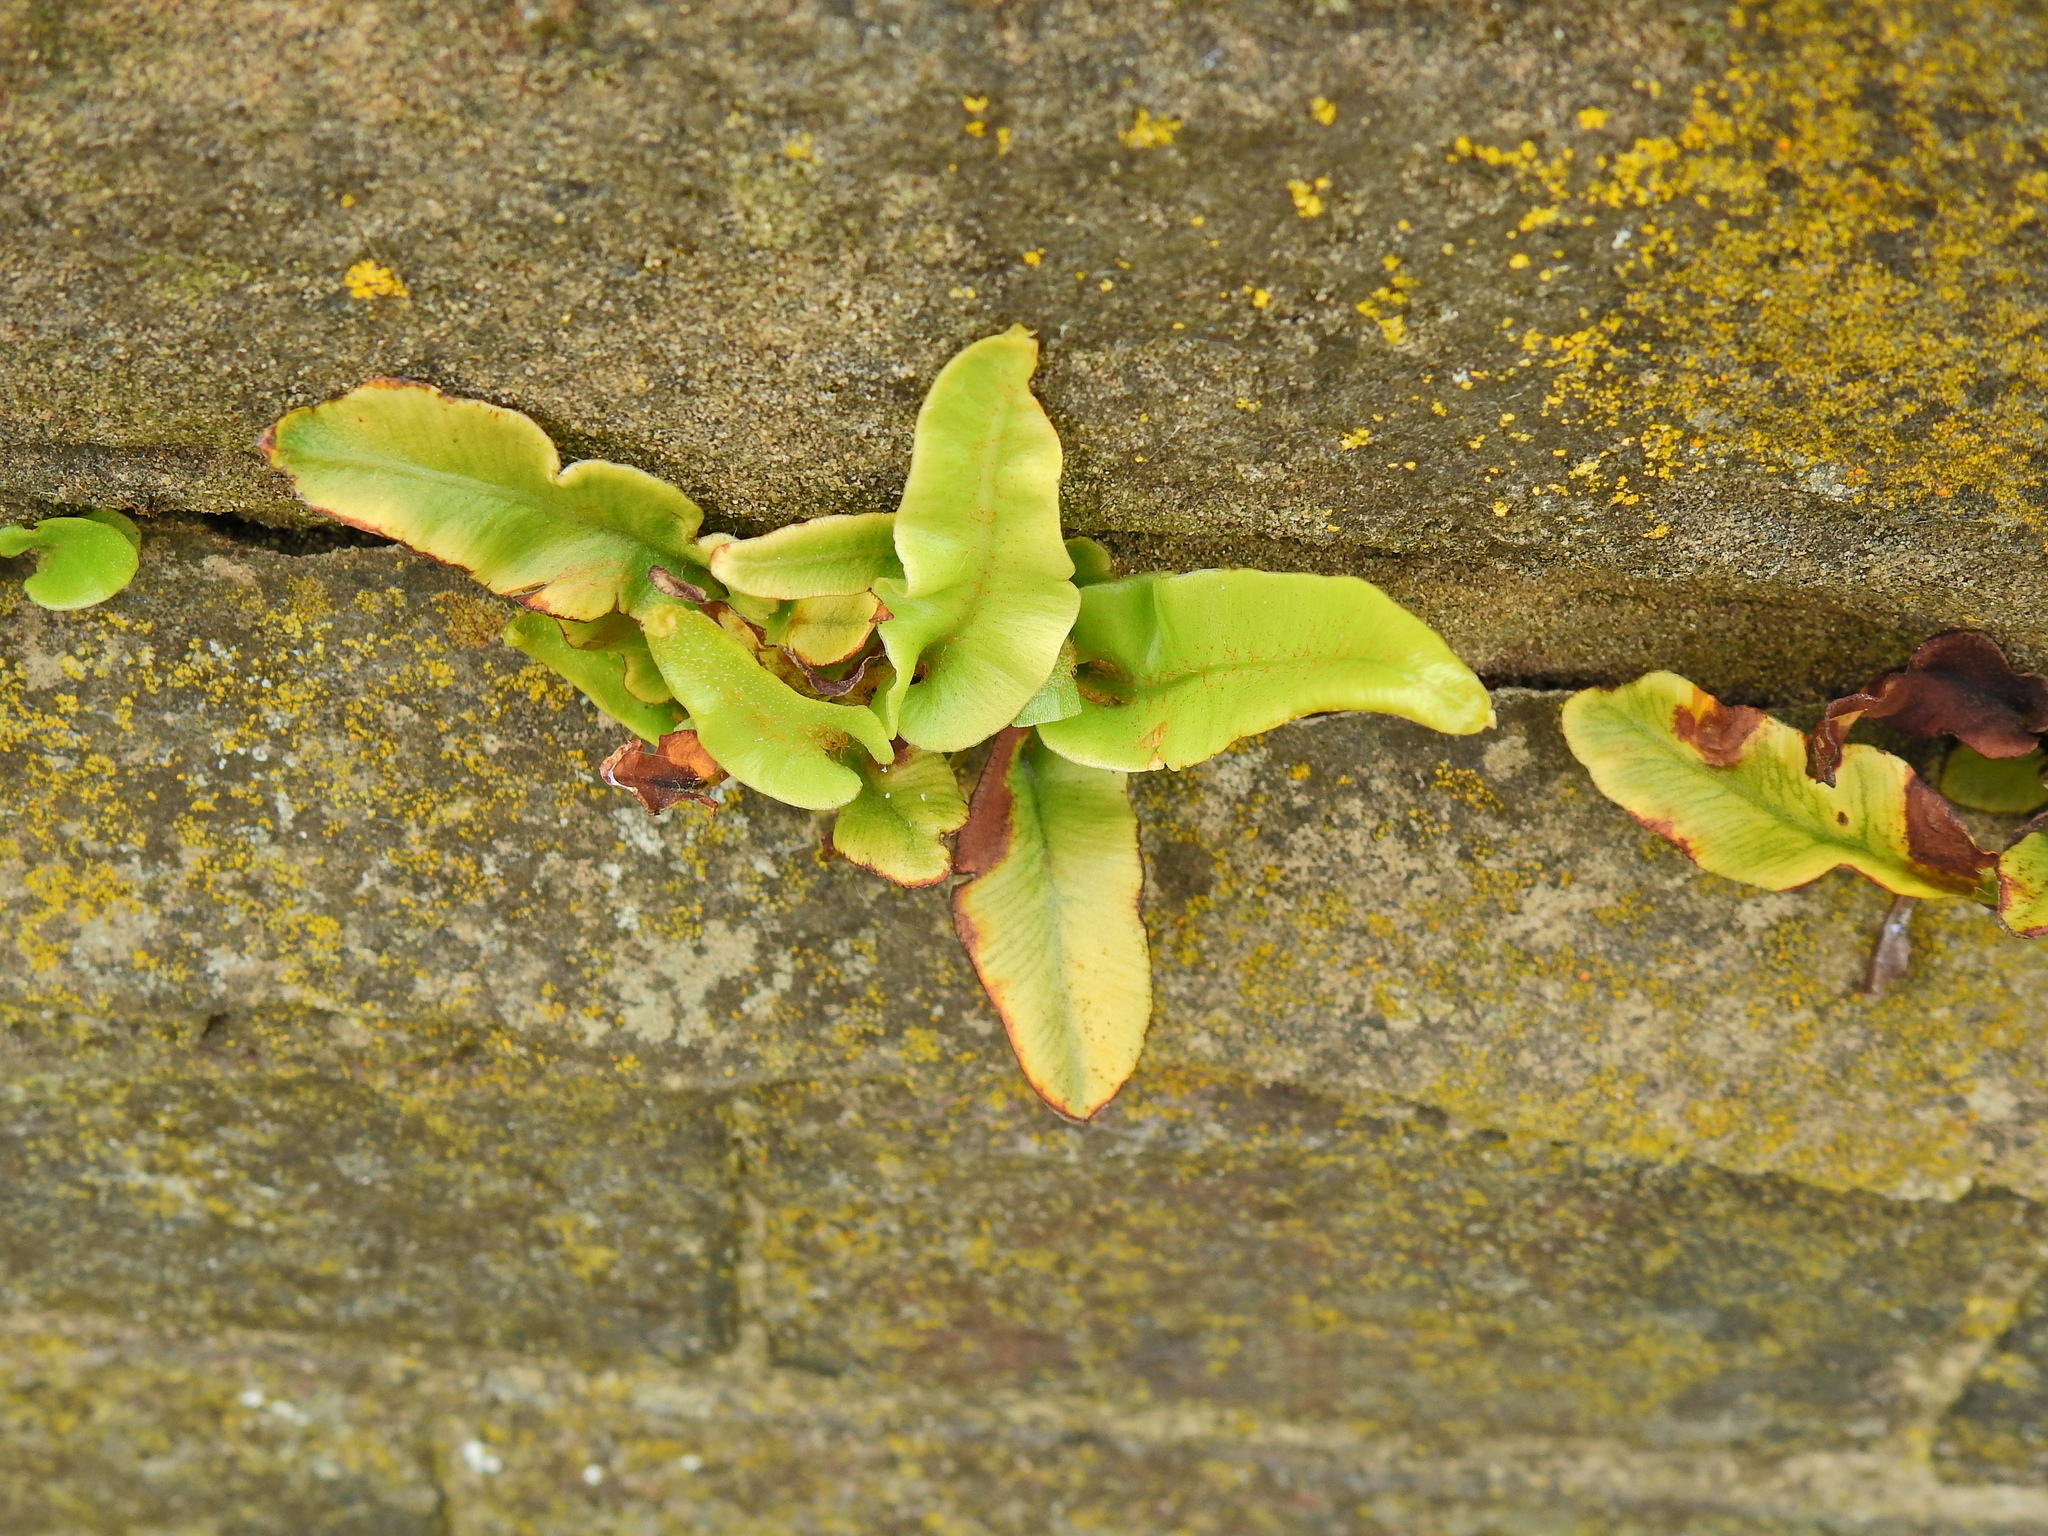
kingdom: Plantae
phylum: Tracheophyta
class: Polypodiopsida
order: Polypodiales
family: Aspleniaceae
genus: Asplenium
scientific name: Asplenium scolopendrium
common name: Hart's-tongue fern
